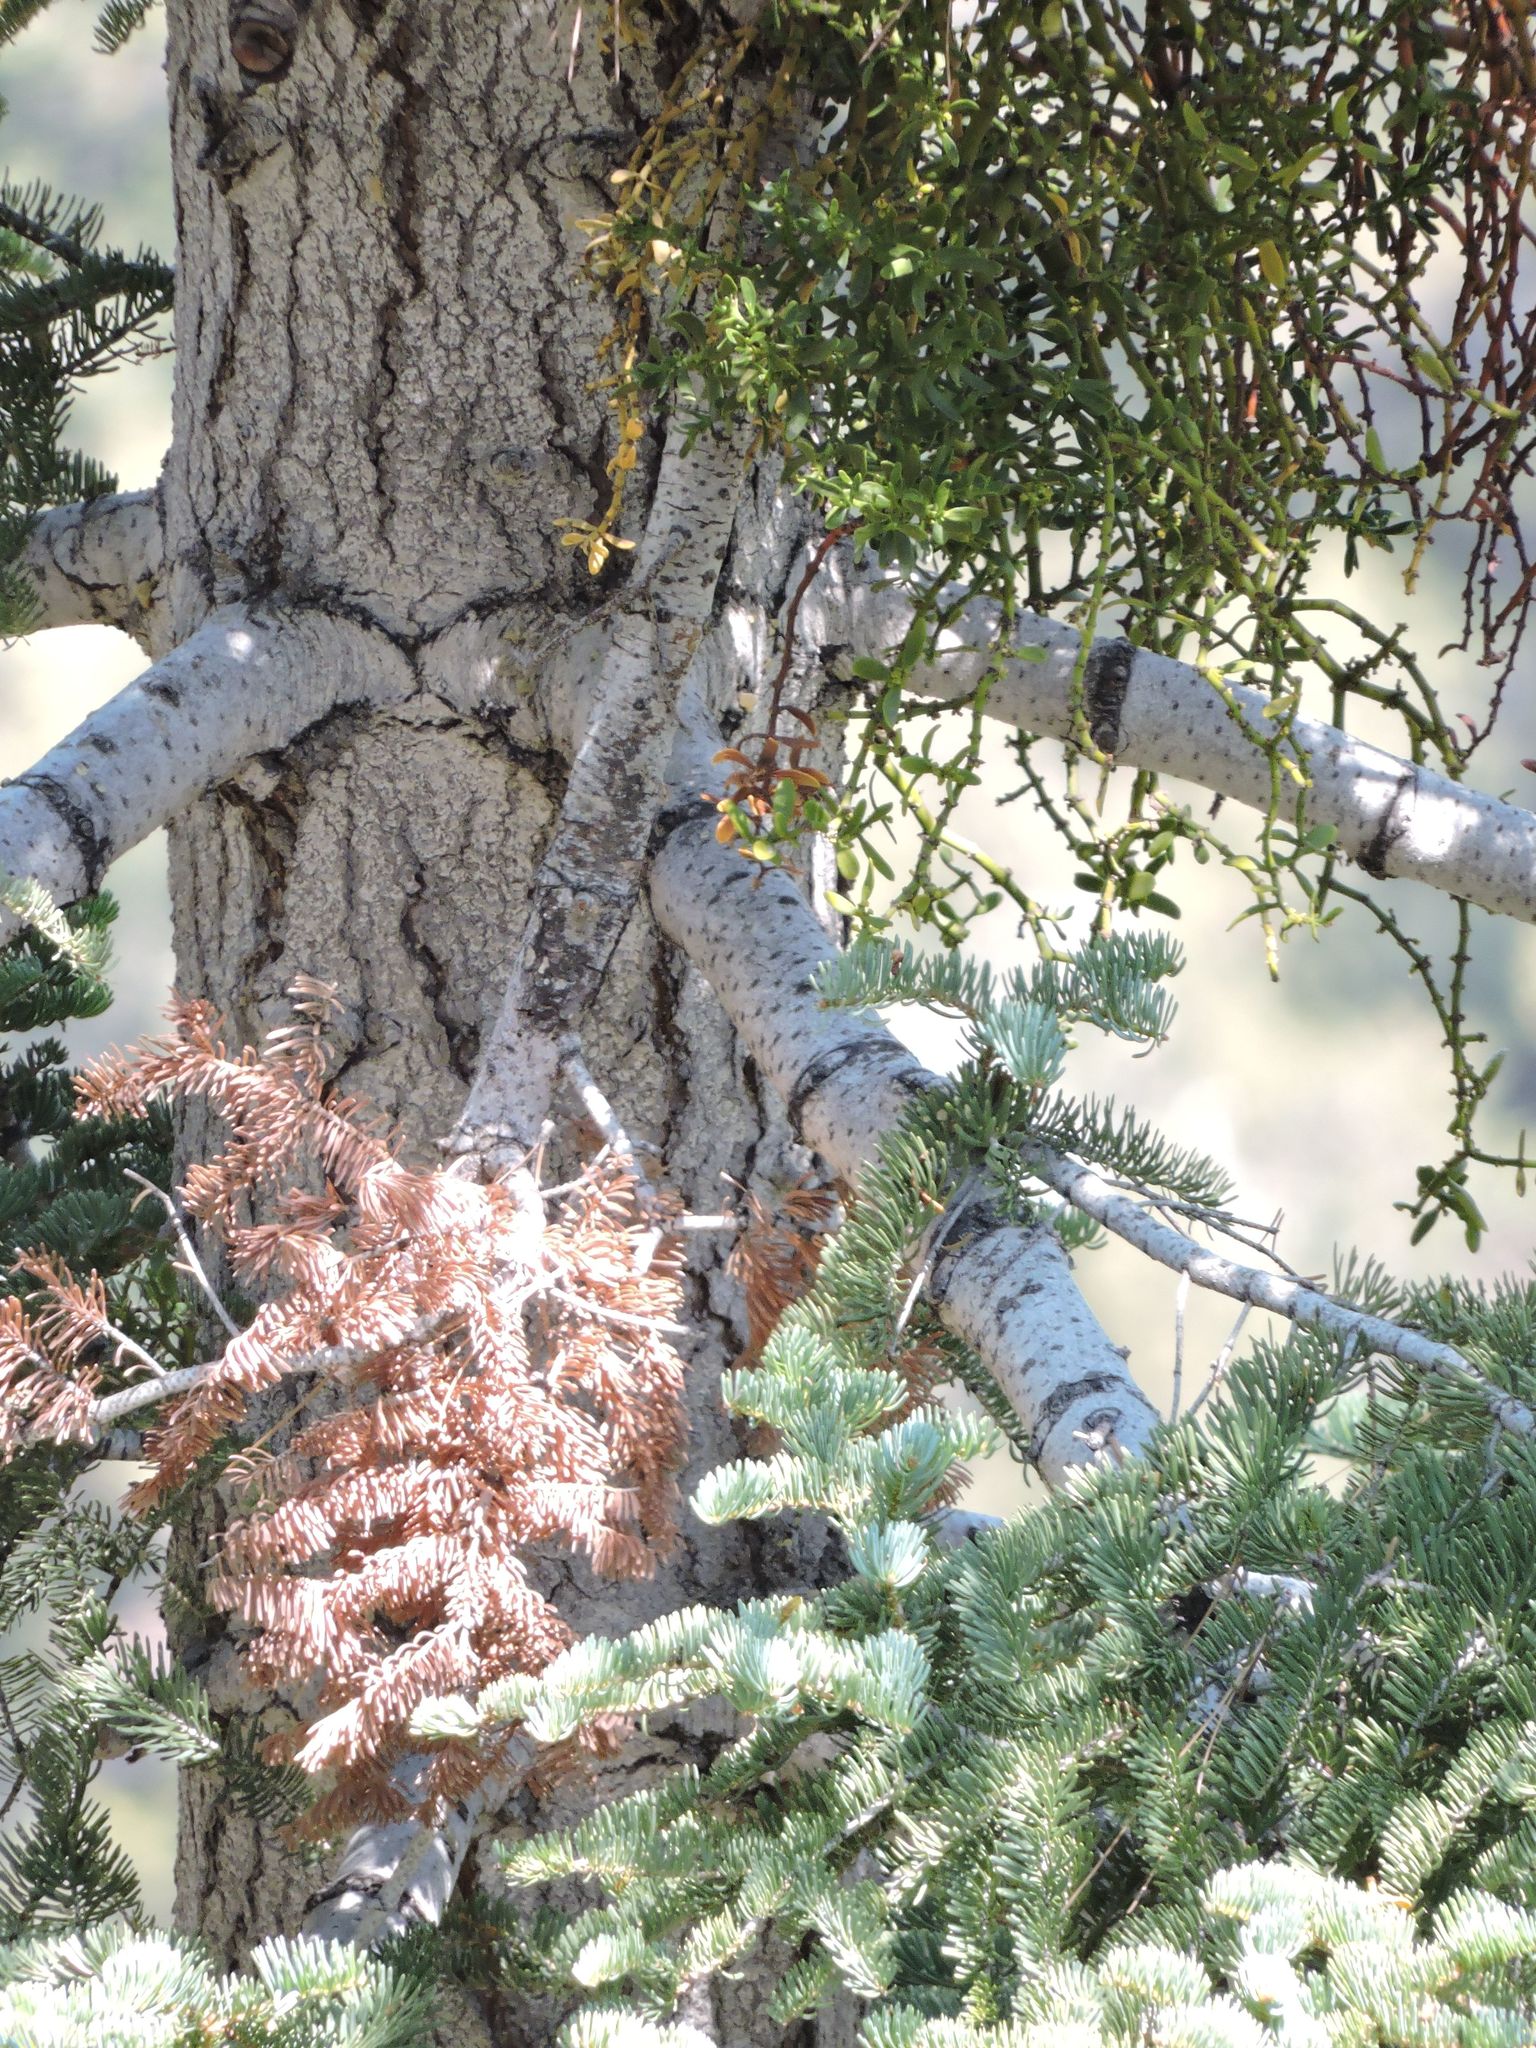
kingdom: Plantae
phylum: Tracheophyta
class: Pinopsida
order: Pinales
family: Pinaceae
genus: Abies
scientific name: Abies concolor
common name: Colorado fir
